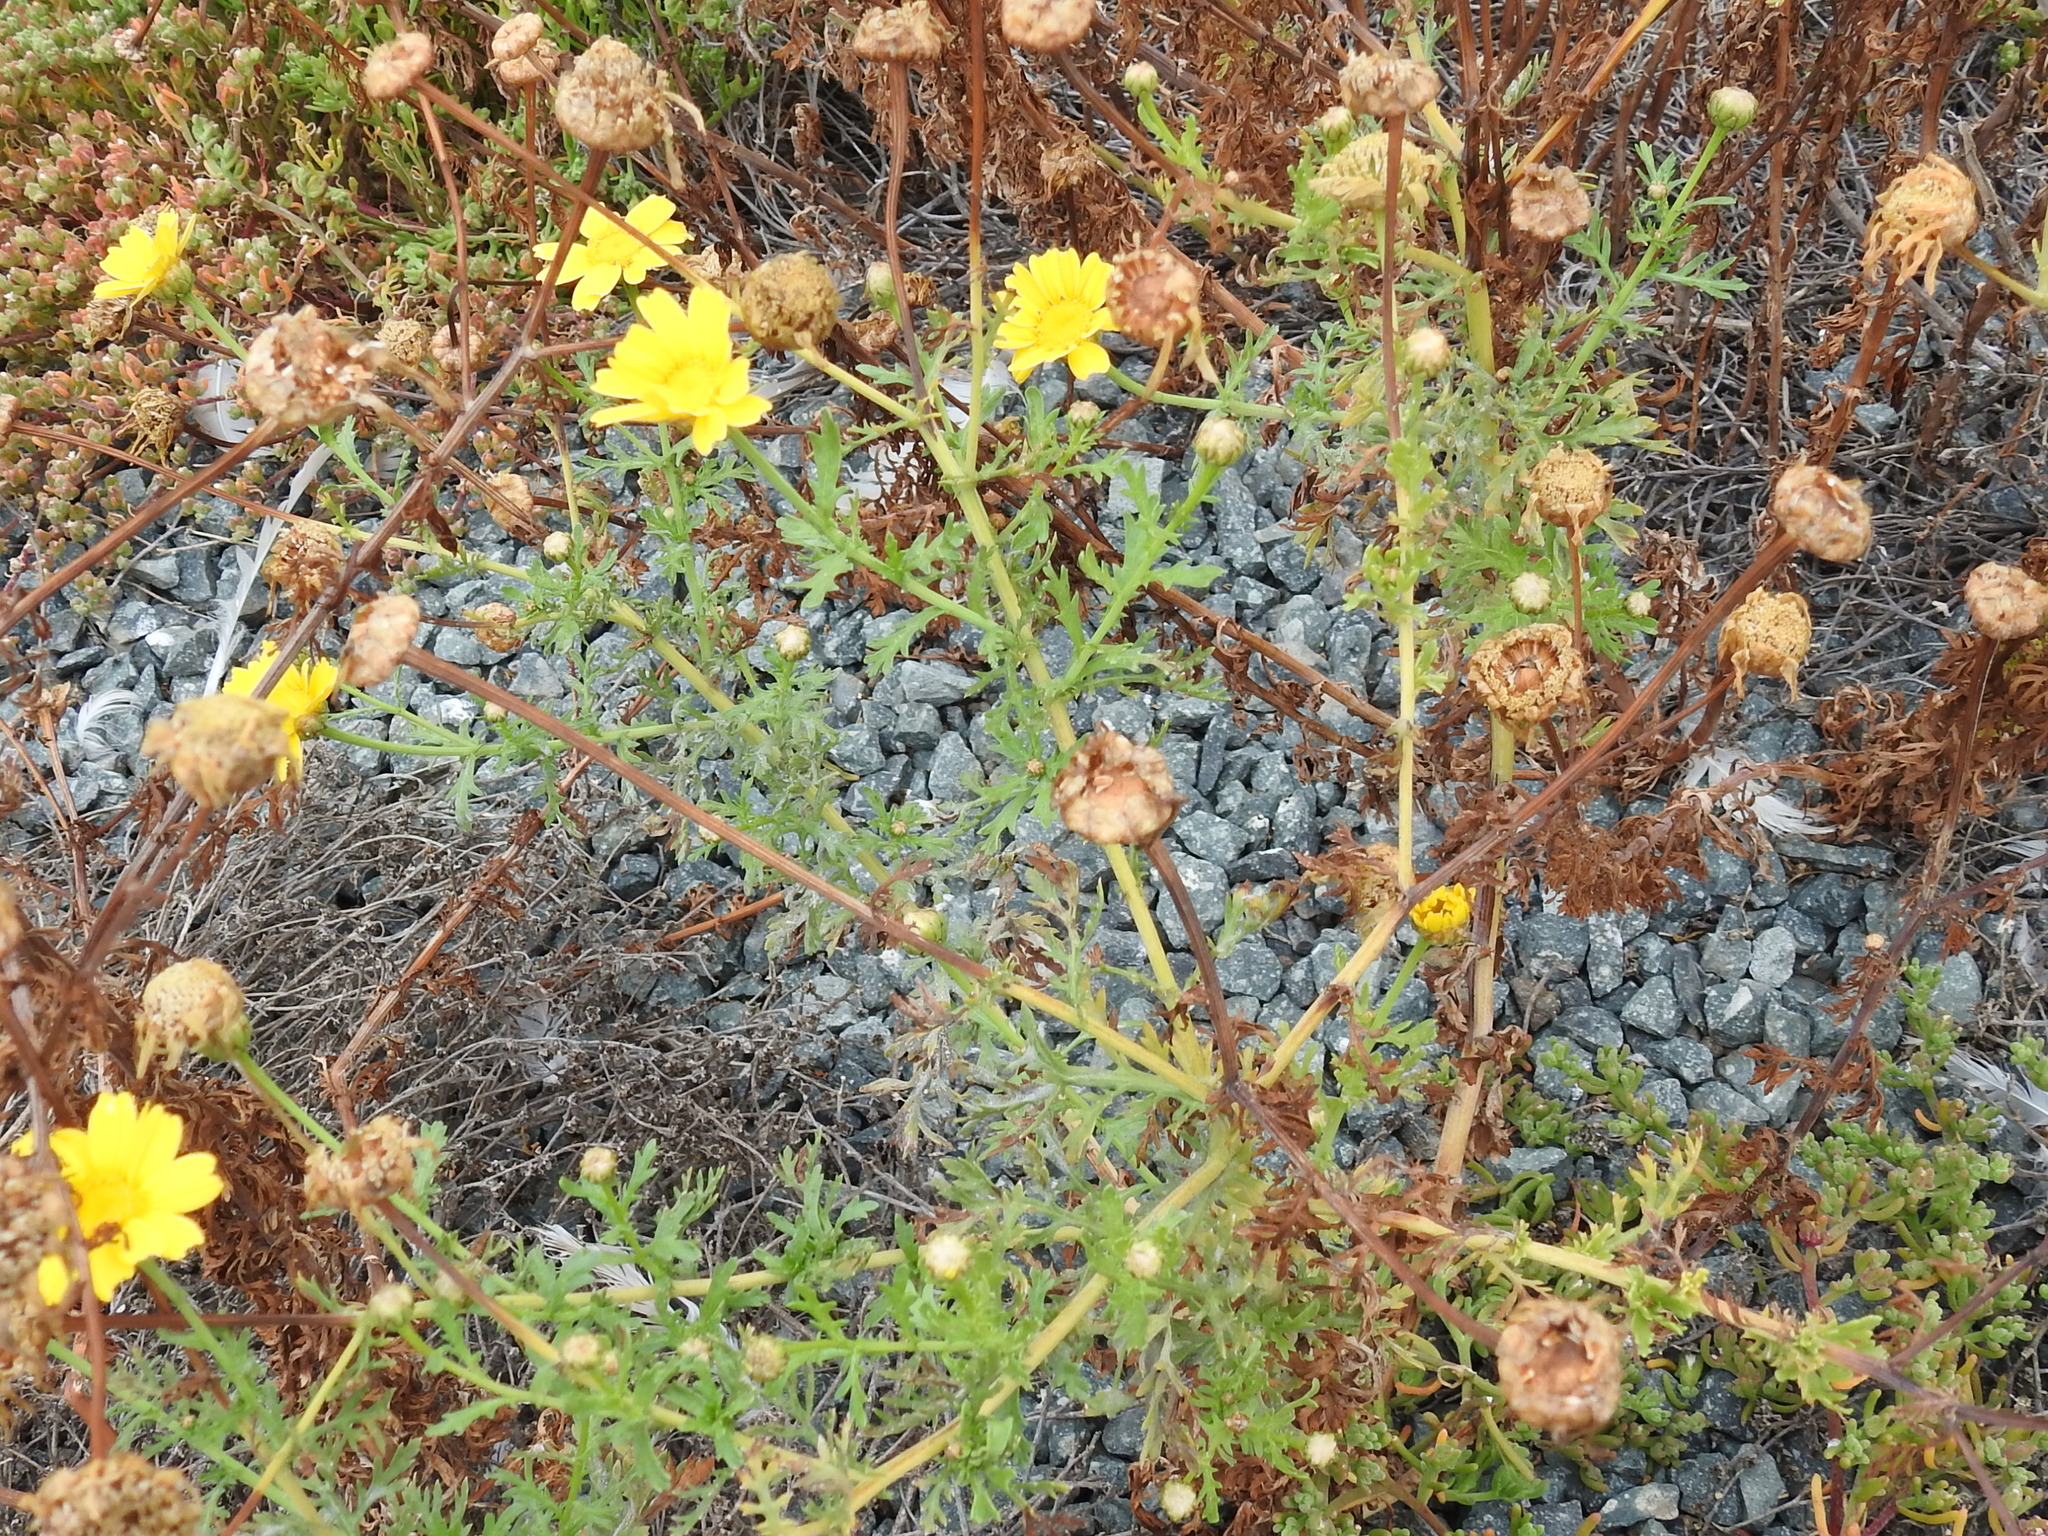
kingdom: Plantae
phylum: Tracheophyta
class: Magnoliopsida
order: Asterales
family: Asteraceae
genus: Glebionis
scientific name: Glebionis coronaria
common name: Crowndaisy
